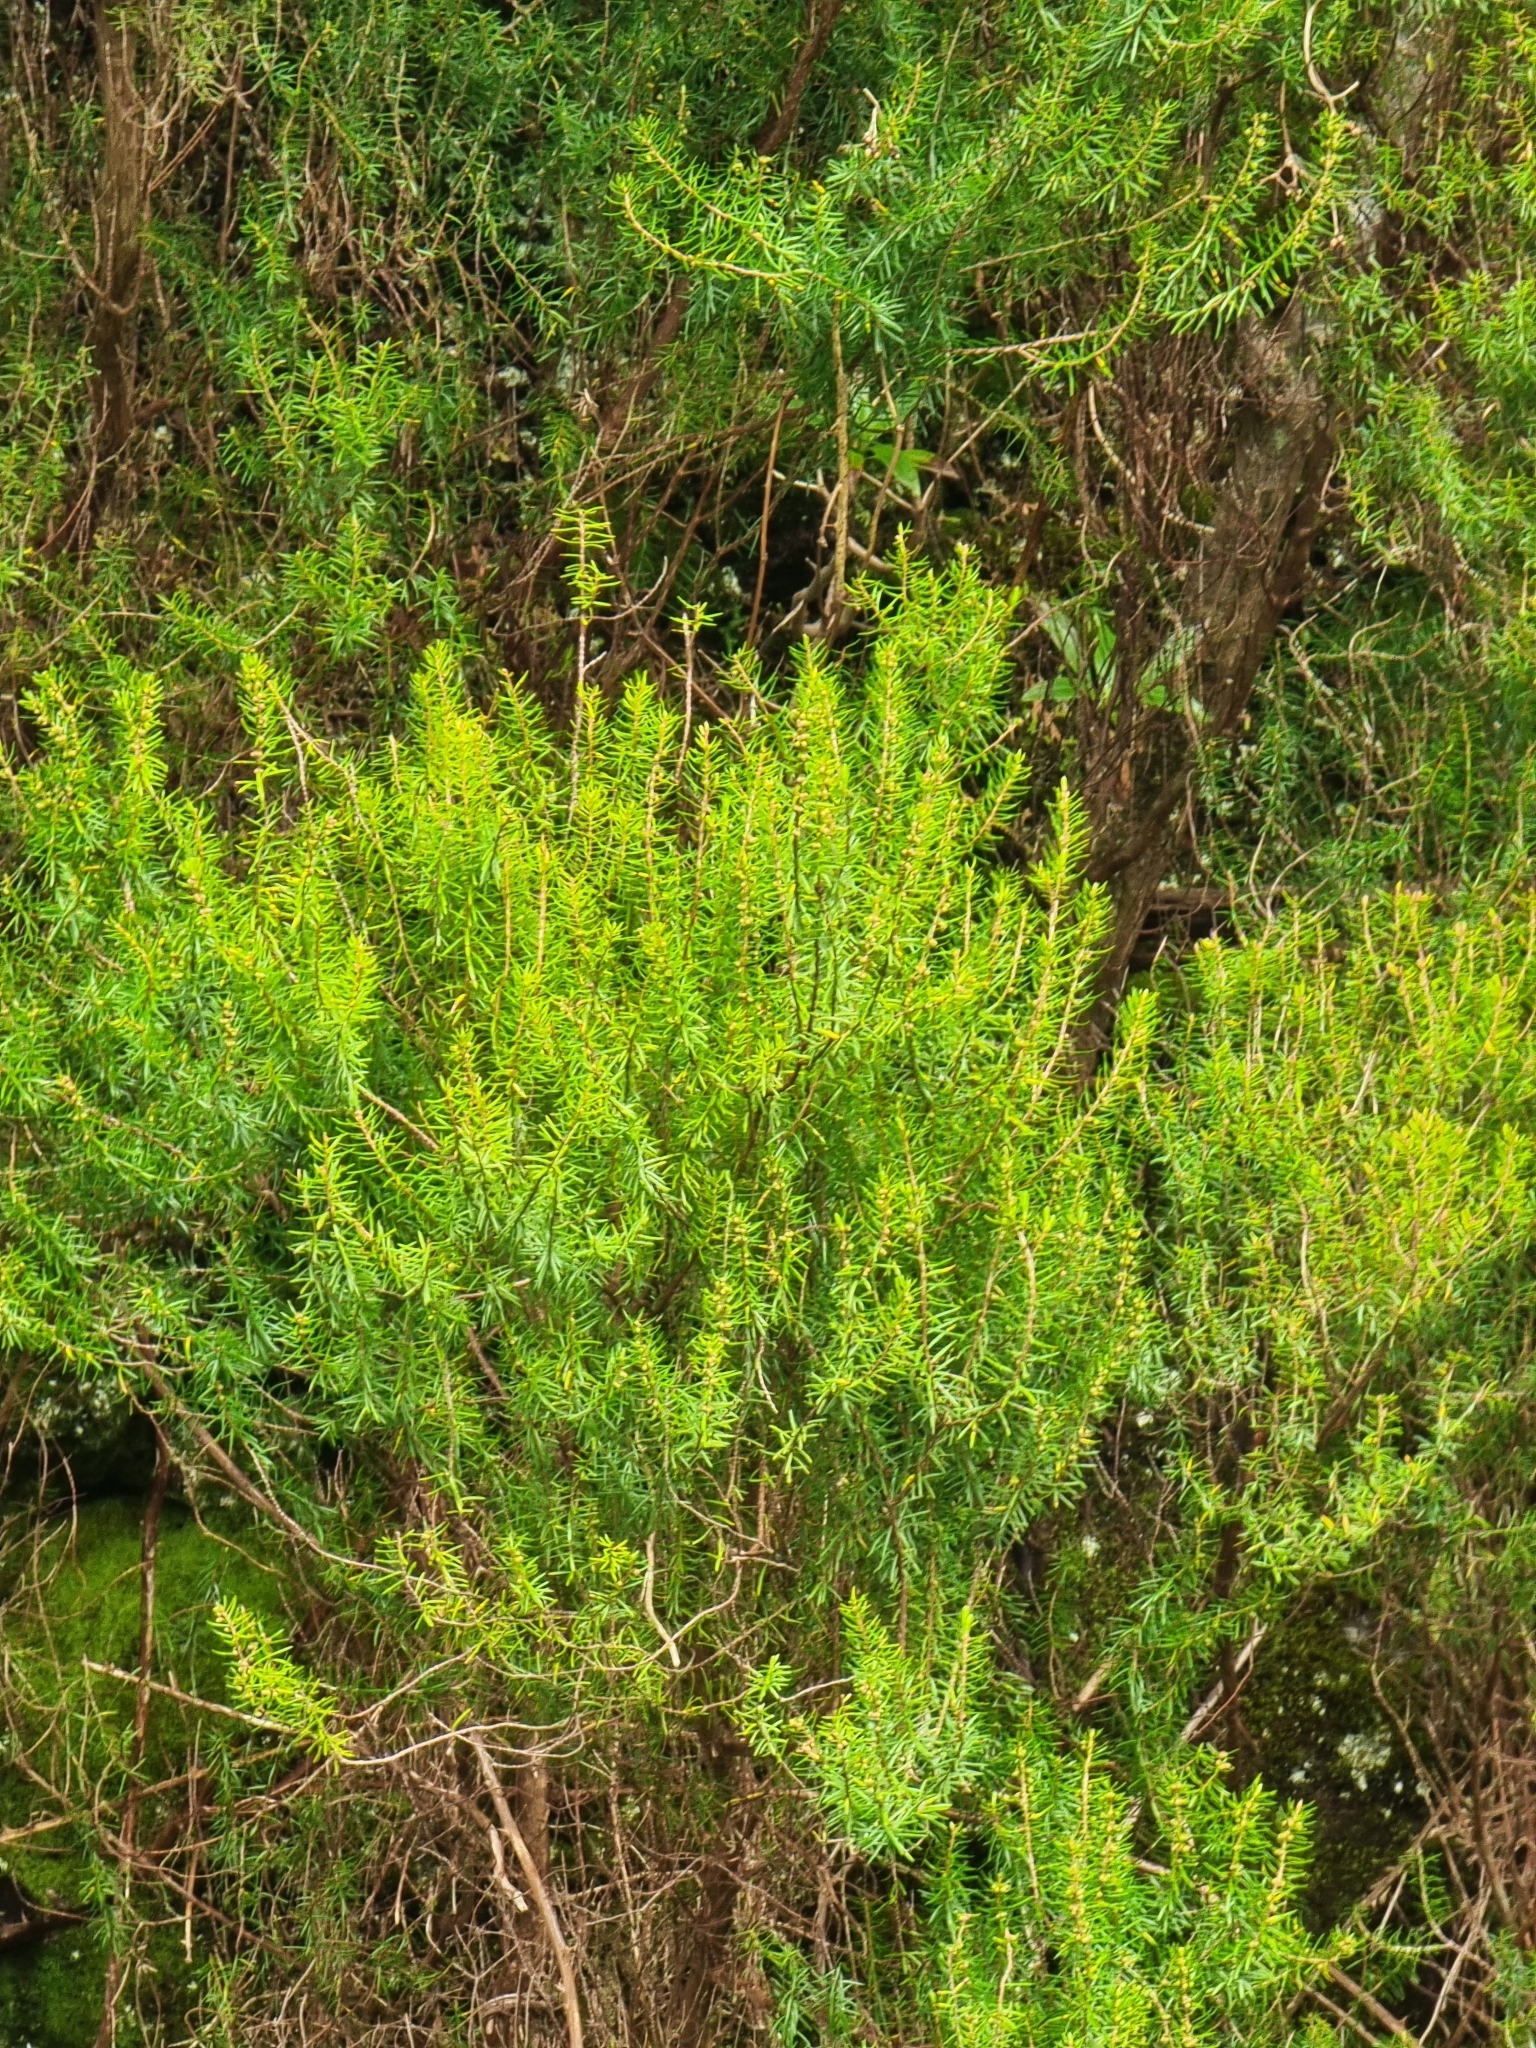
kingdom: Plantae
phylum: Tracheophyta
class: Magnoliopsida
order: Ericales
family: Ericaceae
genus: Erica
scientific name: Erica platycodon
